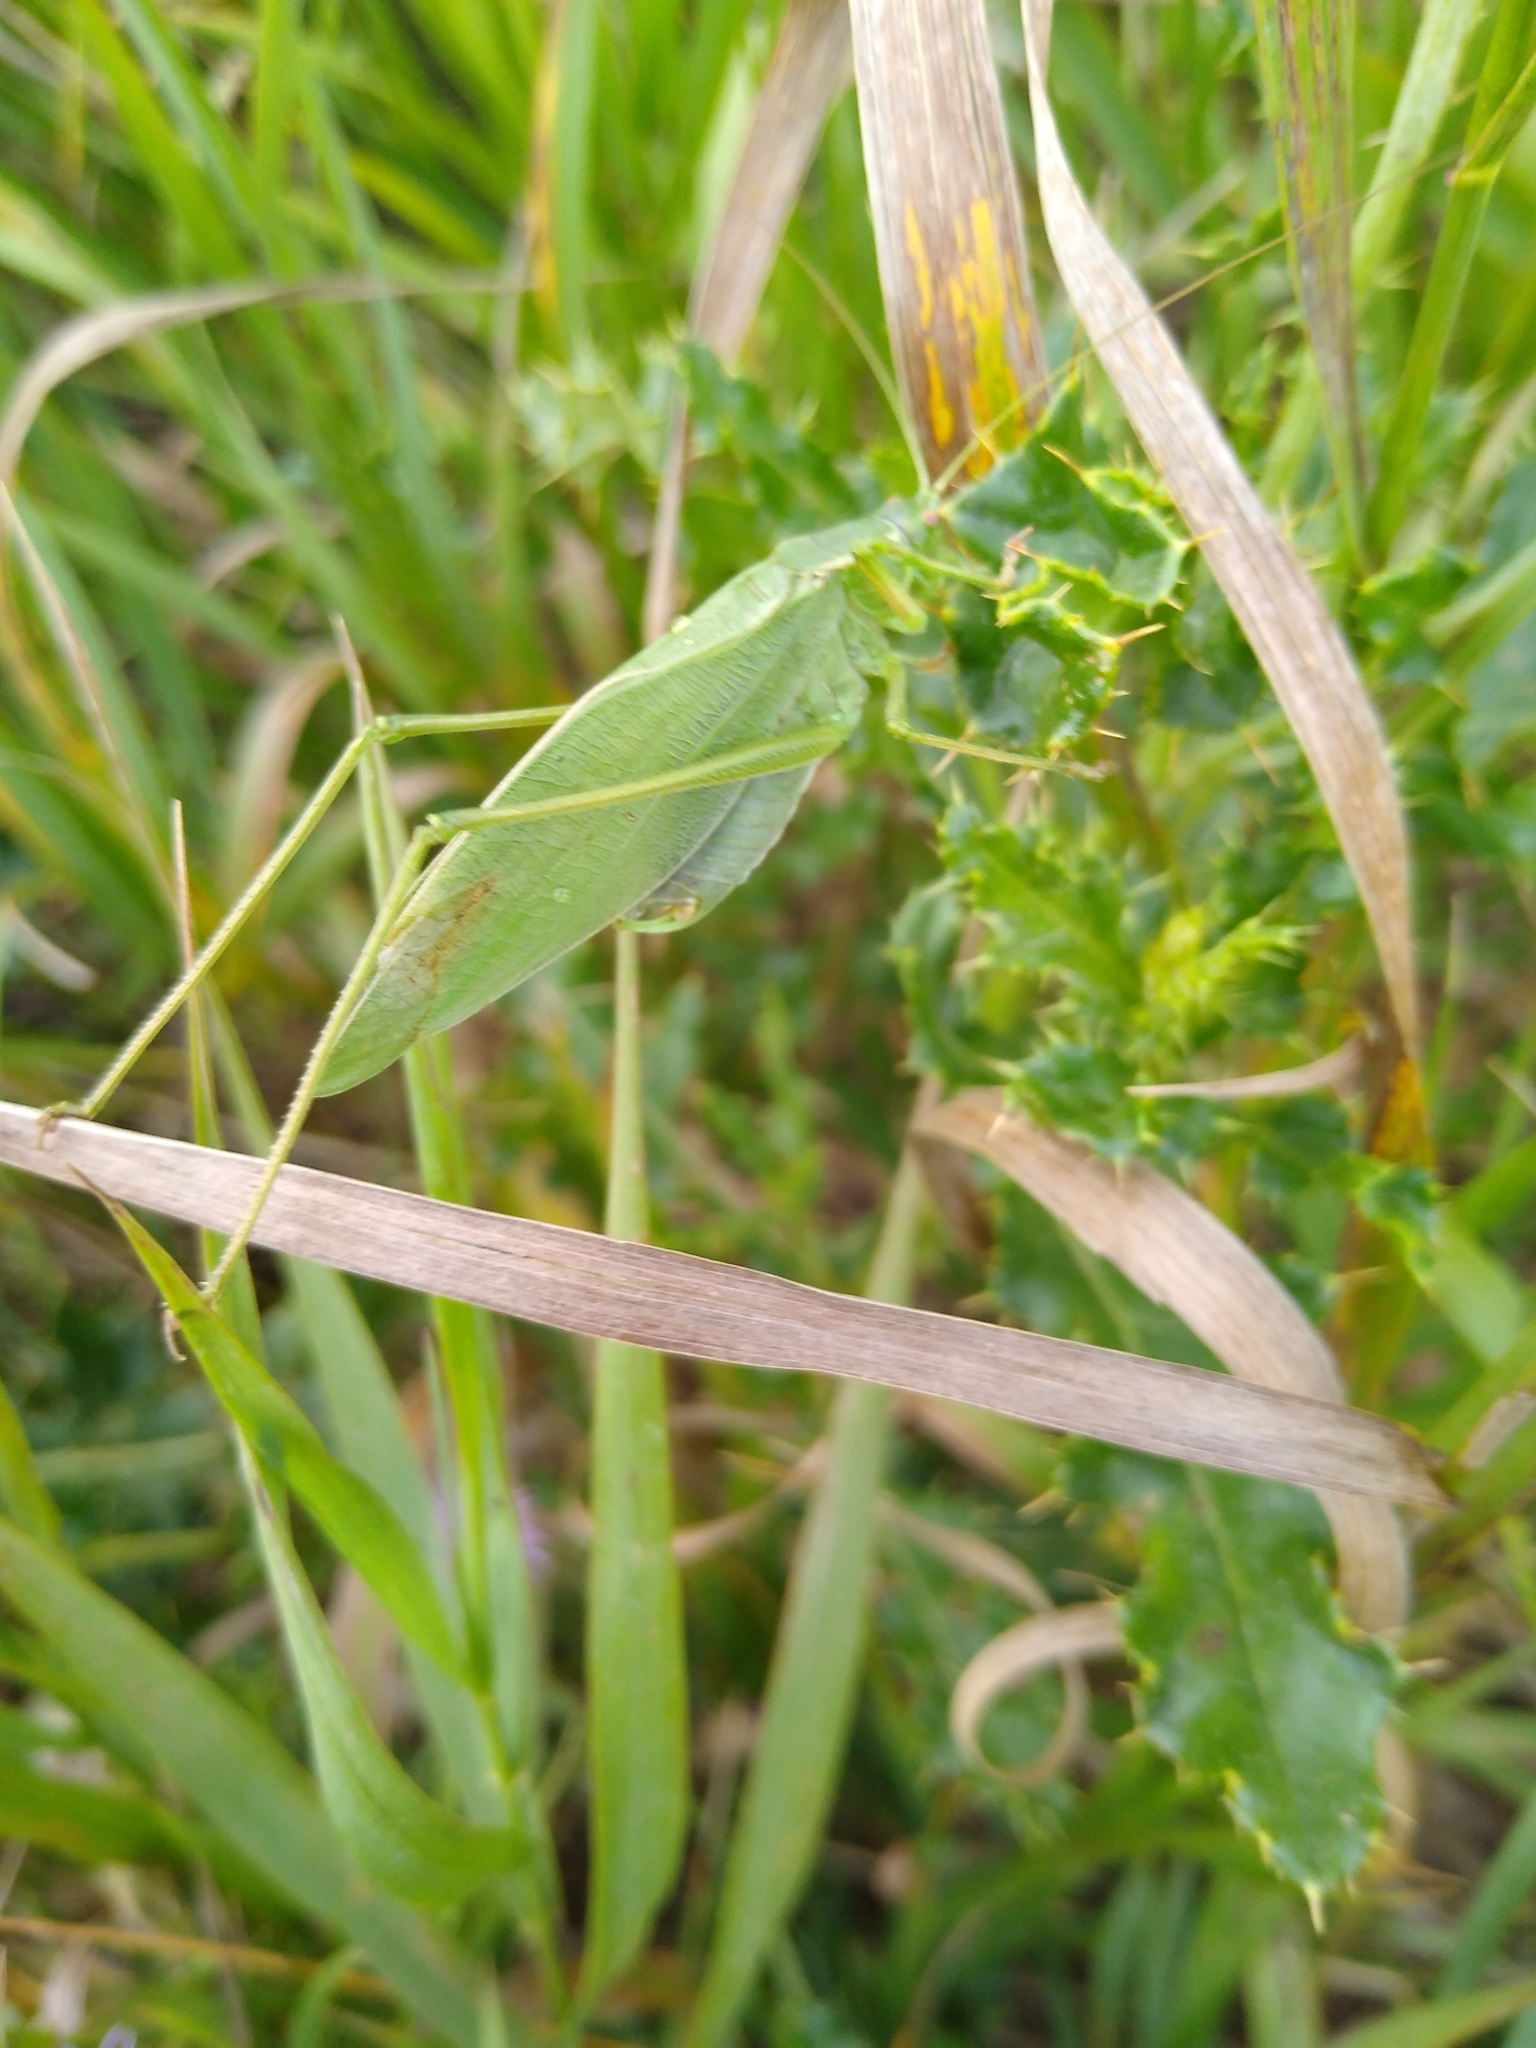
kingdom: Animalia
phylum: Arthropoda
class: Insecta
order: Orthoptera
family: Tettigoniidae
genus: Scudderia
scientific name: Scudderia pistillata
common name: Broad-winged bush-katydid
